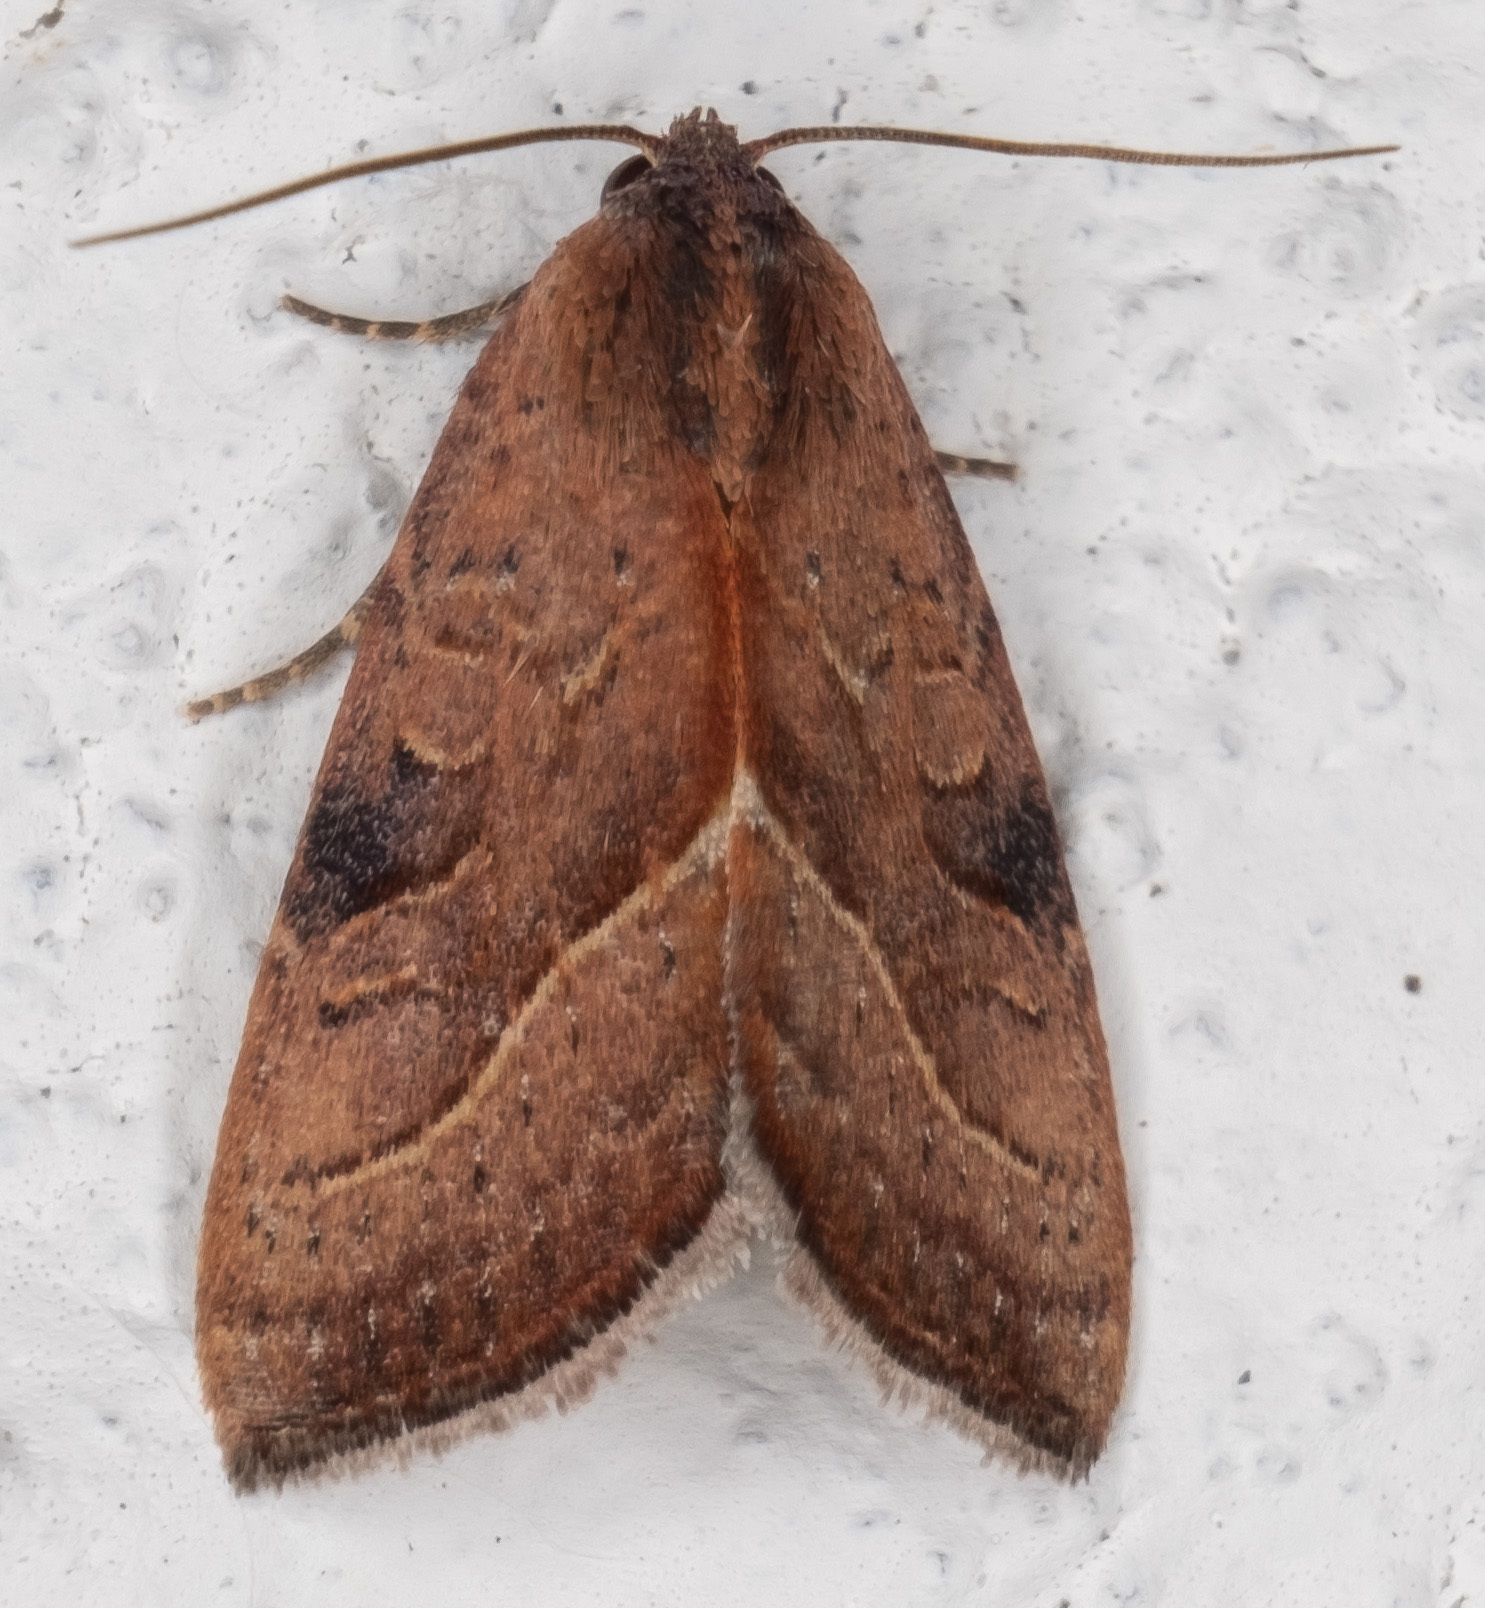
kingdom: Animalia
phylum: Arthropoda
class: Insecta
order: Lepidoptera
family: Noctuidae
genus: Galgula
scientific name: Galgula partita
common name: Wedgeling
